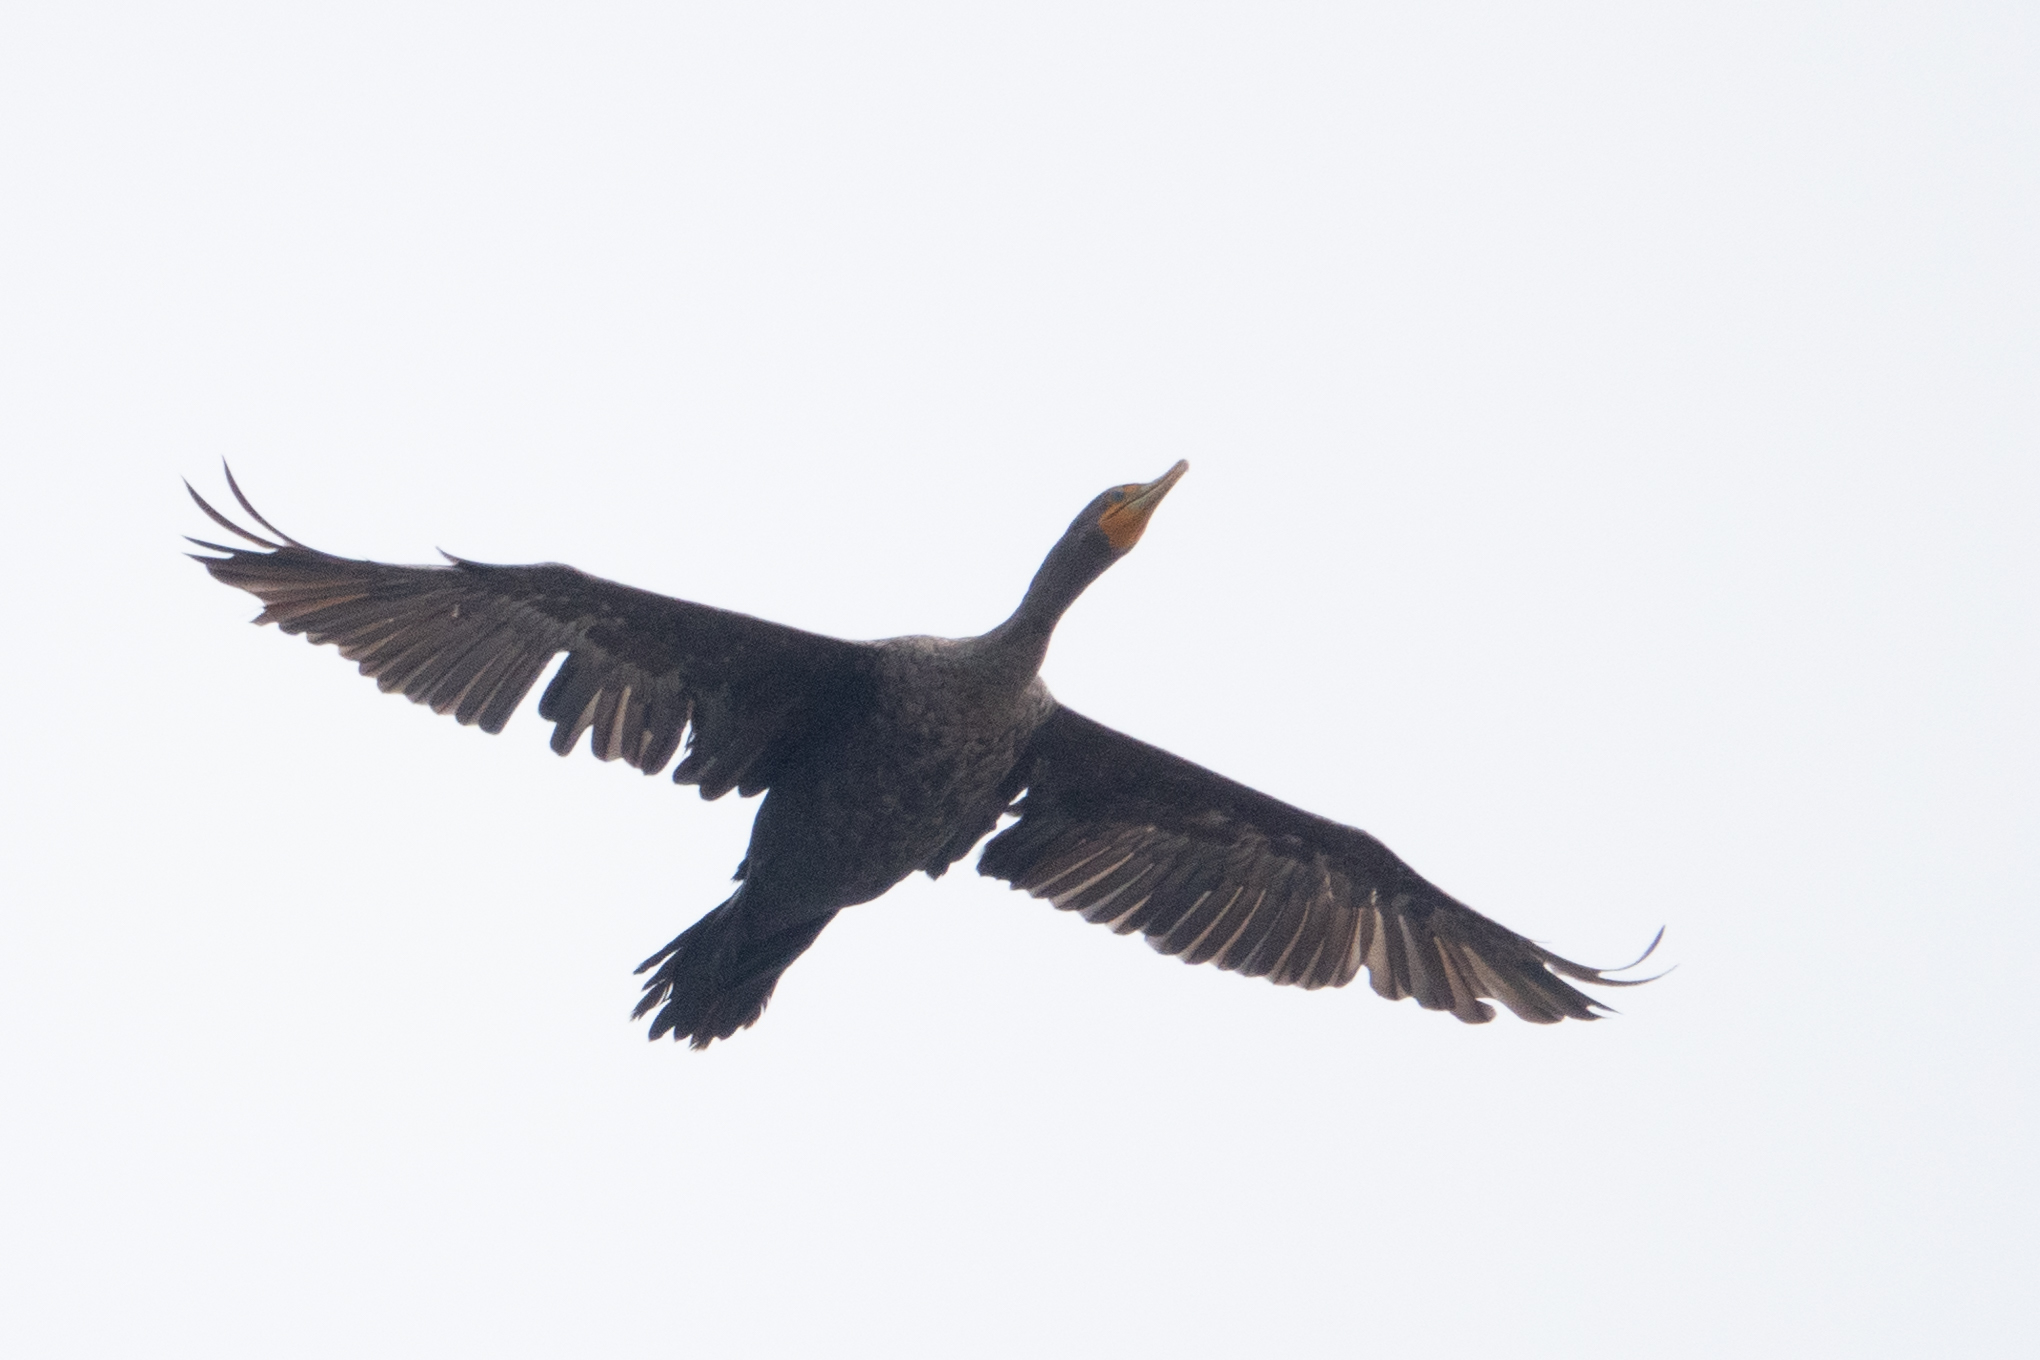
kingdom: Animalia
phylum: Chordata
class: Aves
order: Suliformes
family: Phalacrocoracidae
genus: Phalacrocorax
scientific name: Phalacrocorax auritus
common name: Double-crested cormorant
